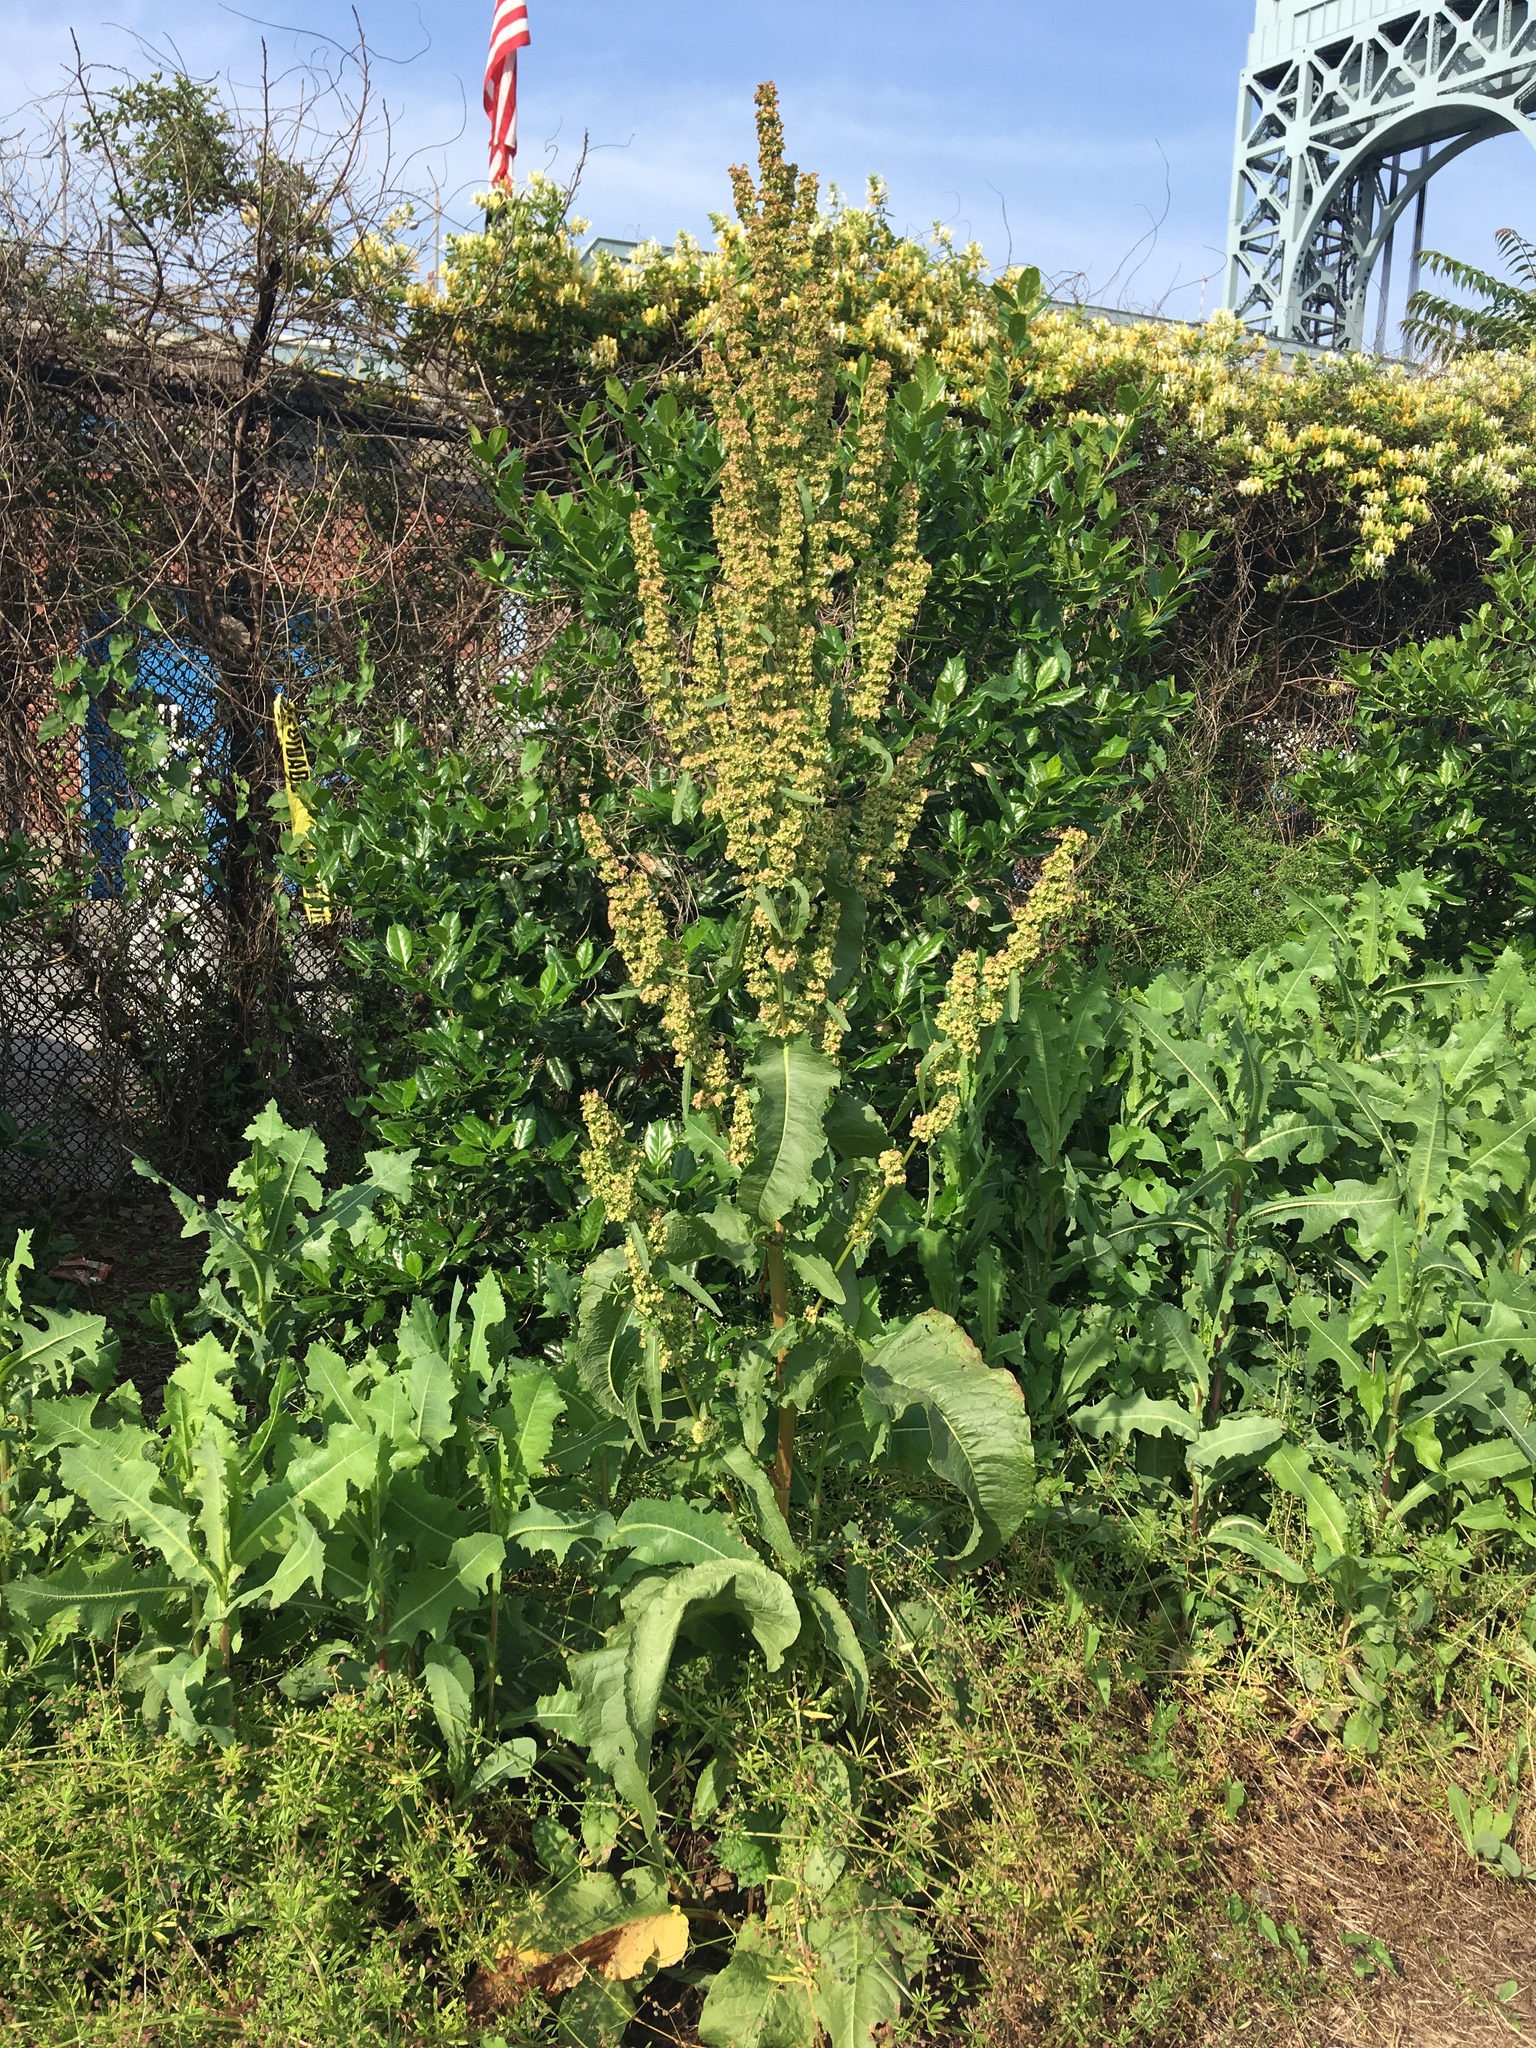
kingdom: Plantae
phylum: Tracheophyta
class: Magnoliopsida
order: Caryophyllales
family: Polygonaceae
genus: Rumex
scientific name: Rumex cristatus
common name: Greek dock
